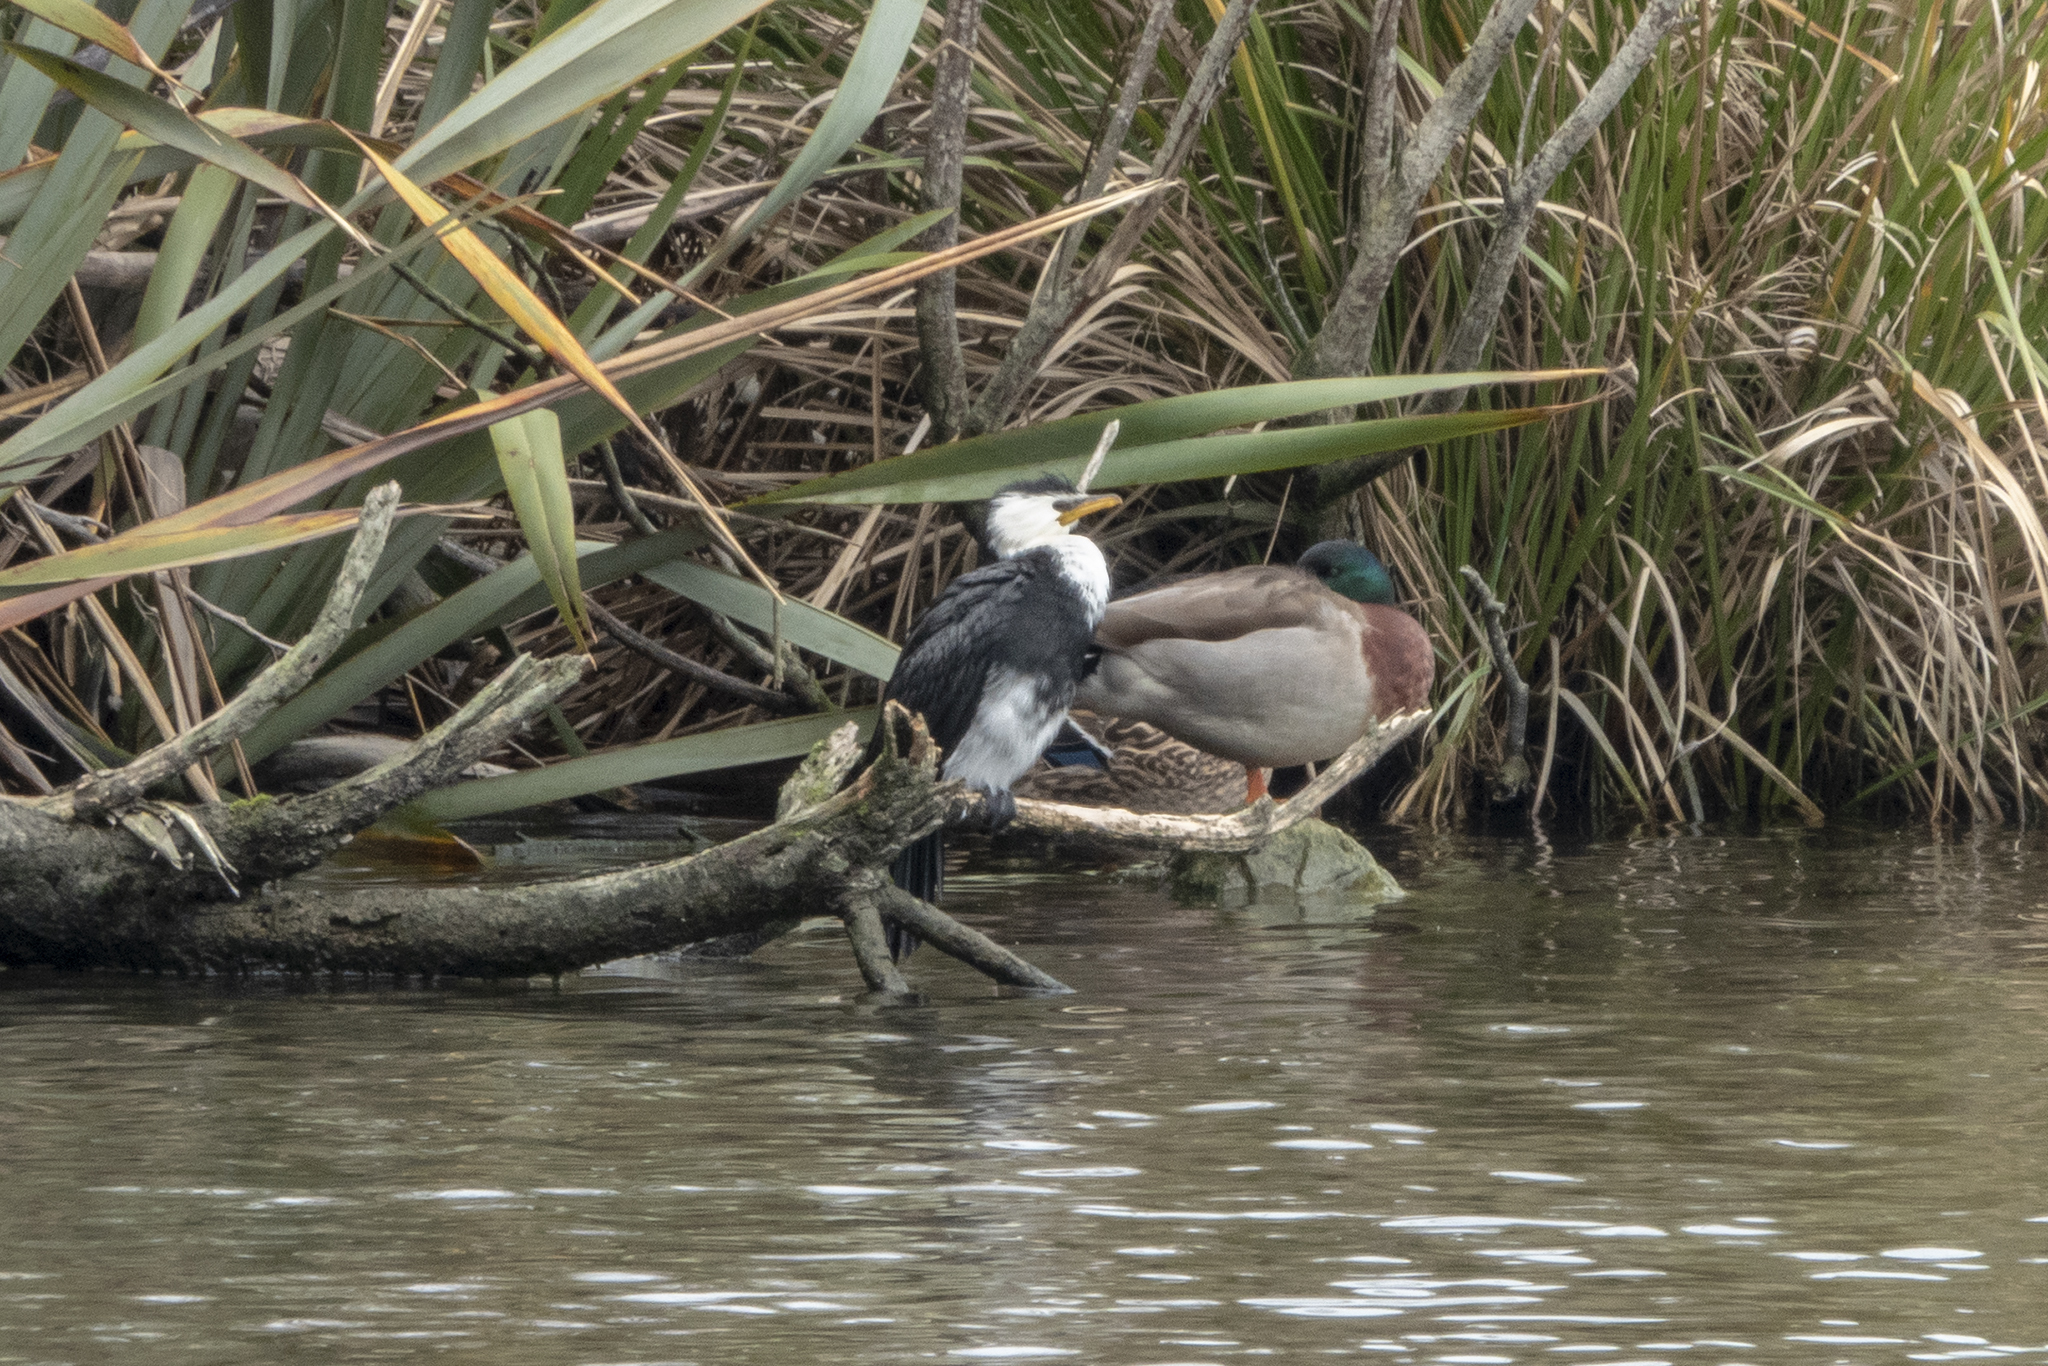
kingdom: Animalia
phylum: Chordata
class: Aves
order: Suliformes
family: Phalacrocoracidae
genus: Microcarbo
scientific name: Microcarbo melanoleucos
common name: Little pied cormorant
